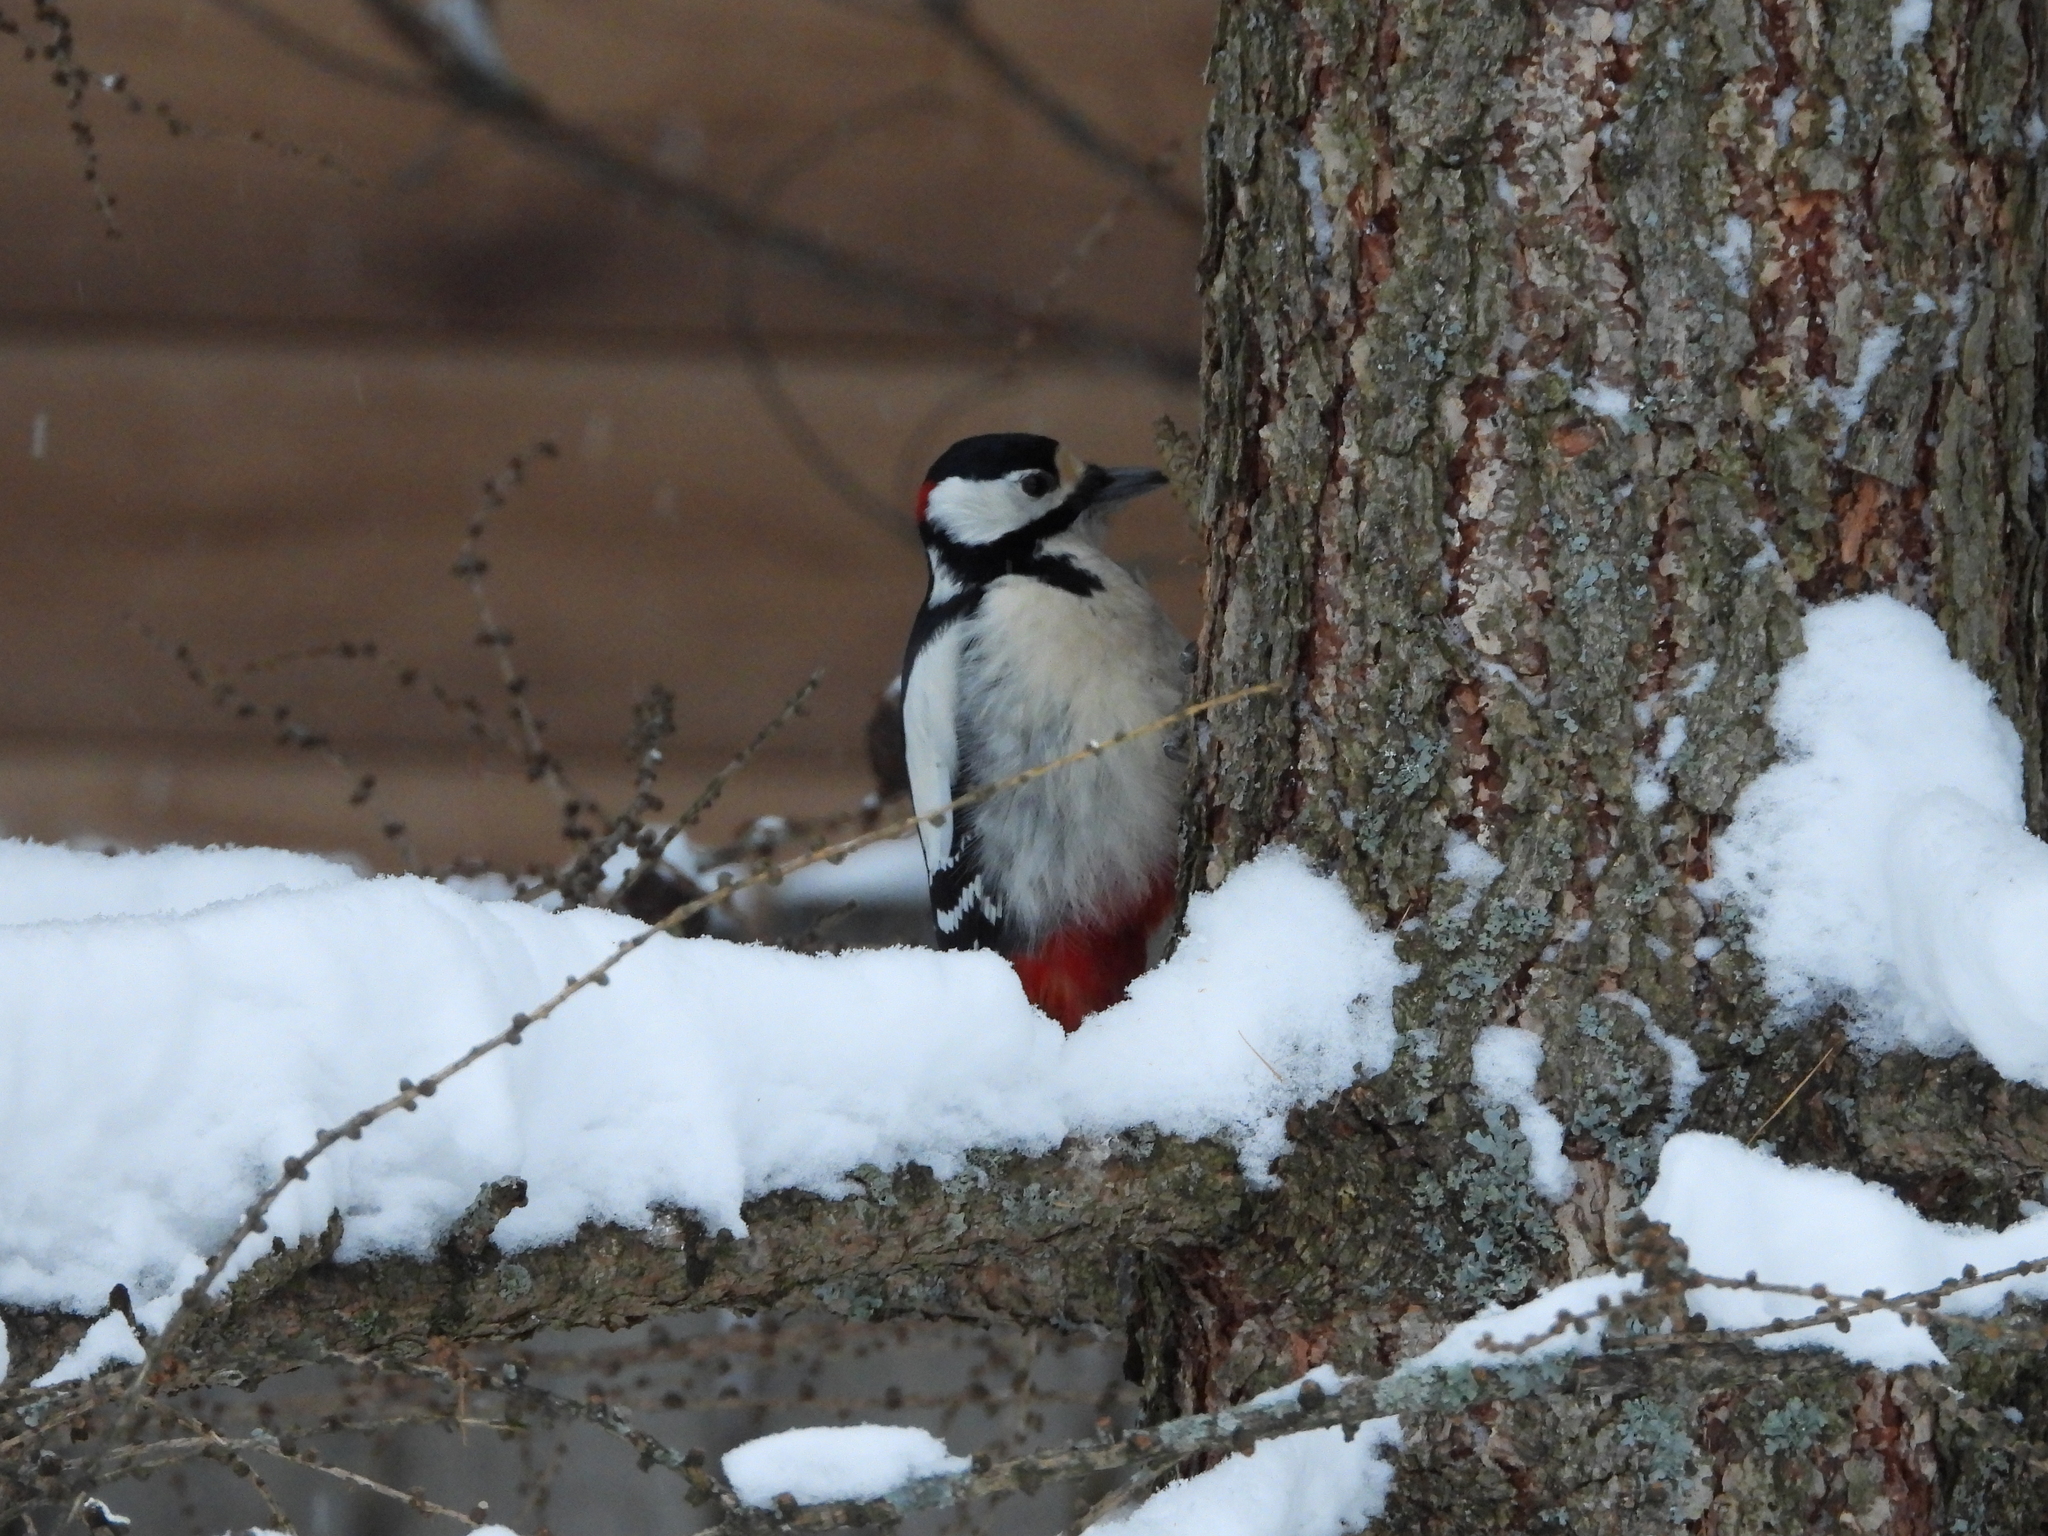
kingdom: Animalia
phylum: Chordata
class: Aves
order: Piciformes
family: Picidae
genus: Dendrocopos
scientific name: Dendrocopos major
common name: Great spotted woodpecker
